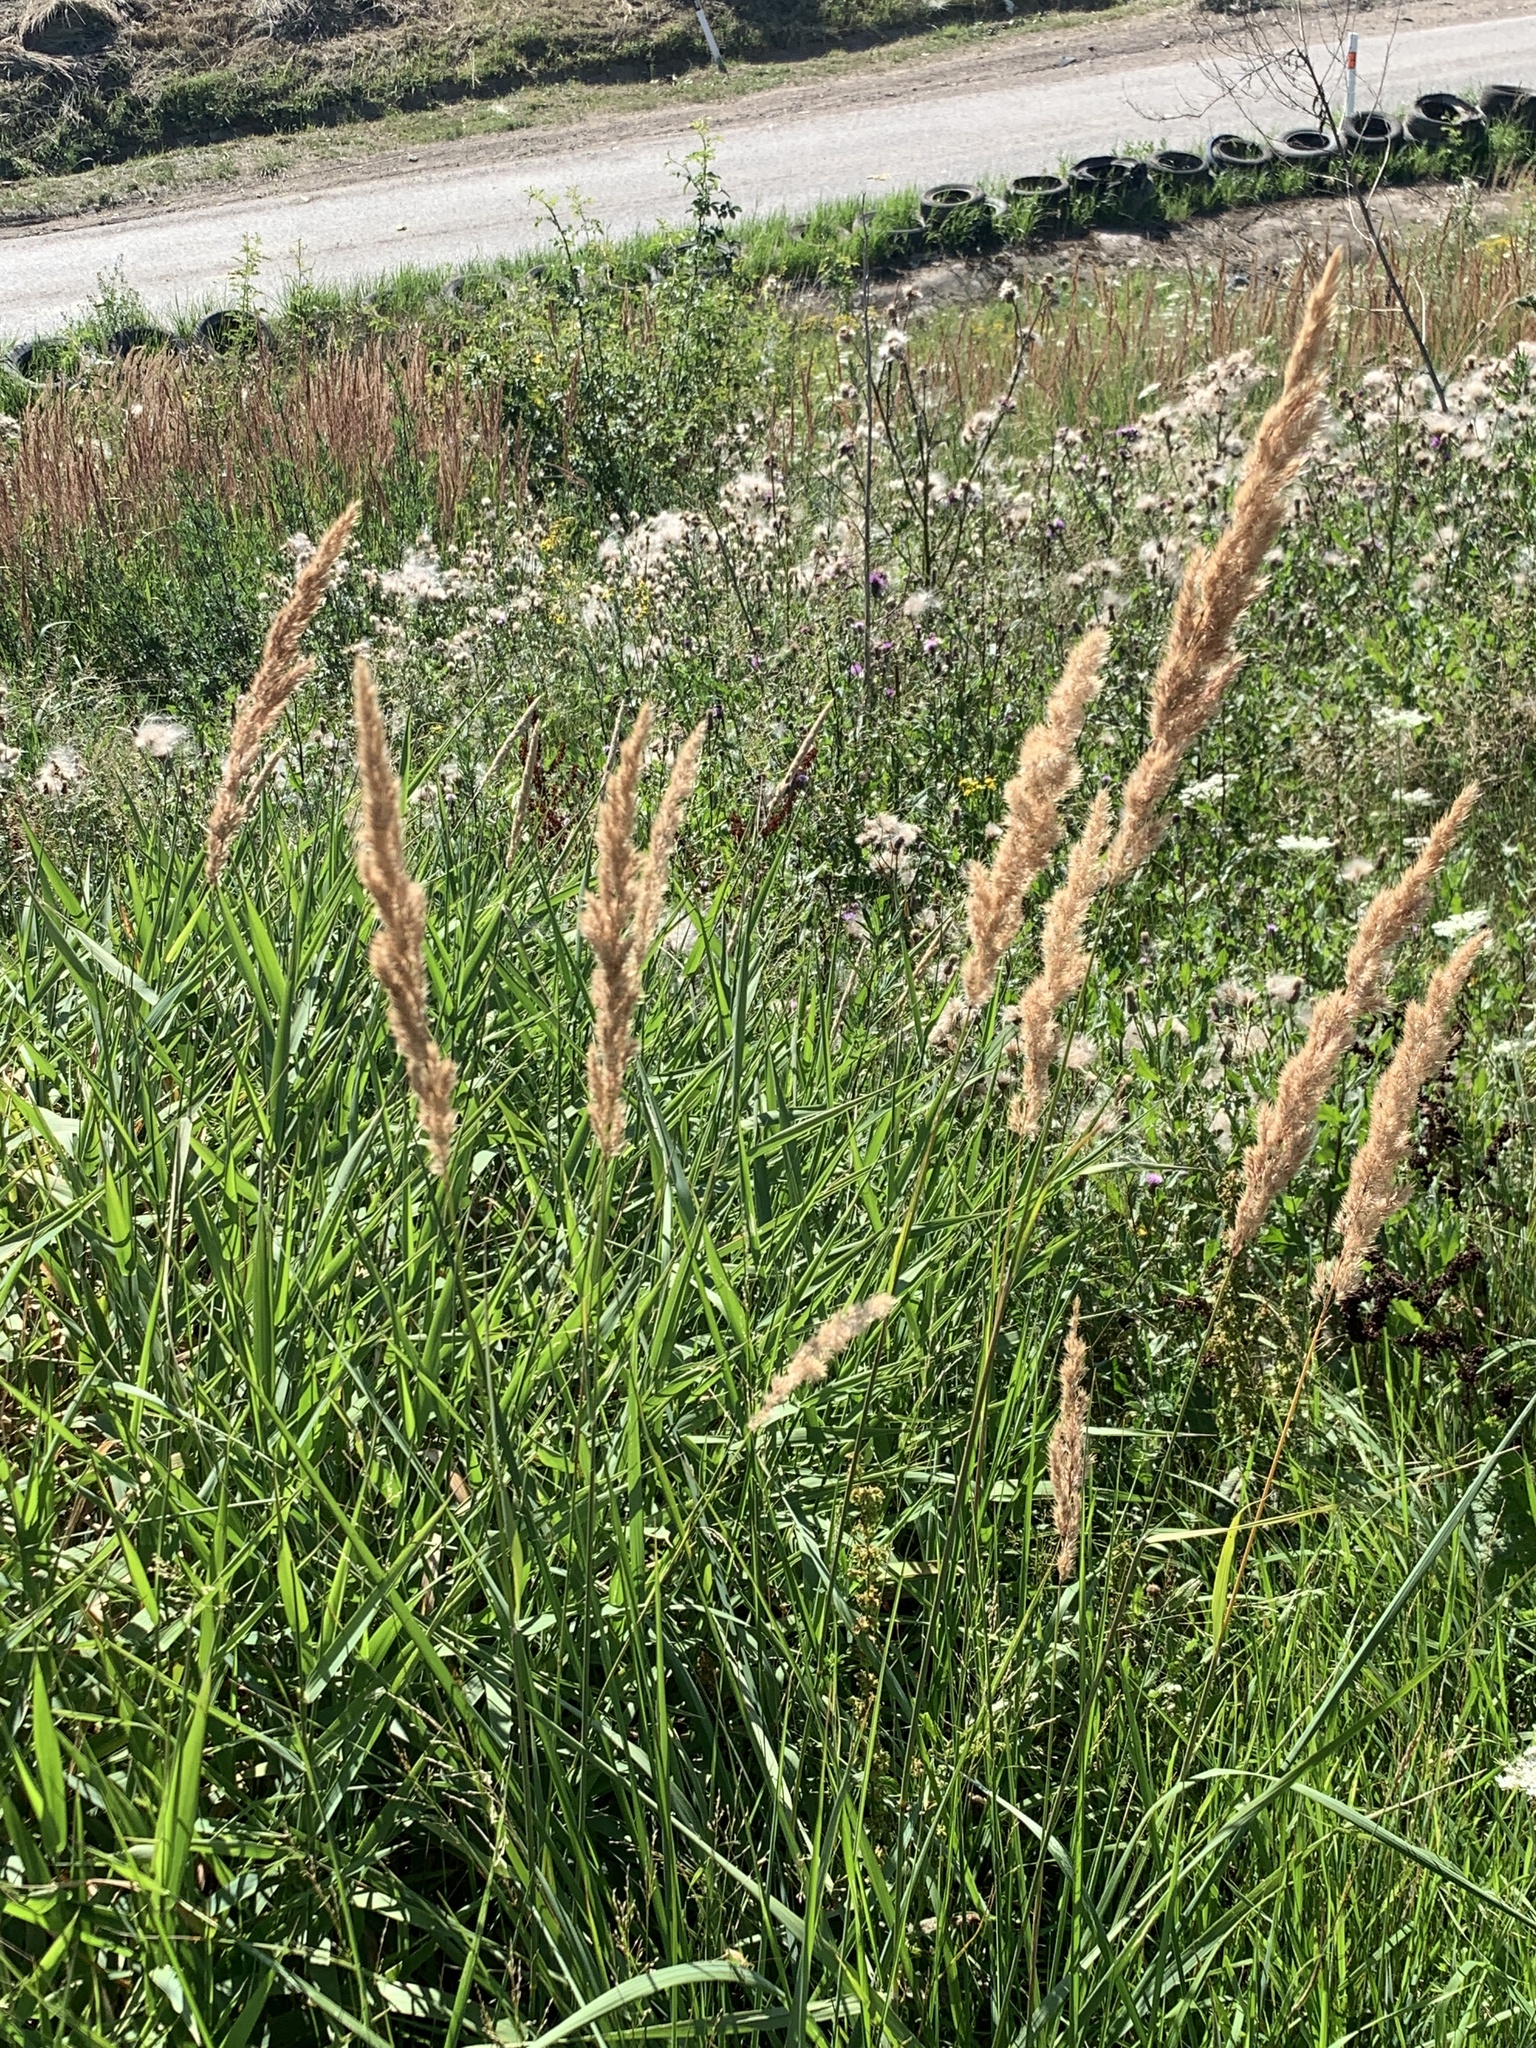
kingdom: Plantae
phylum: Tracheophyta
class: Liliopsida
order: Poales
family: Poaceae
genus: Calamagrostis
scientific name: Calamagrostis epigejos
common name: Wood small-reed
